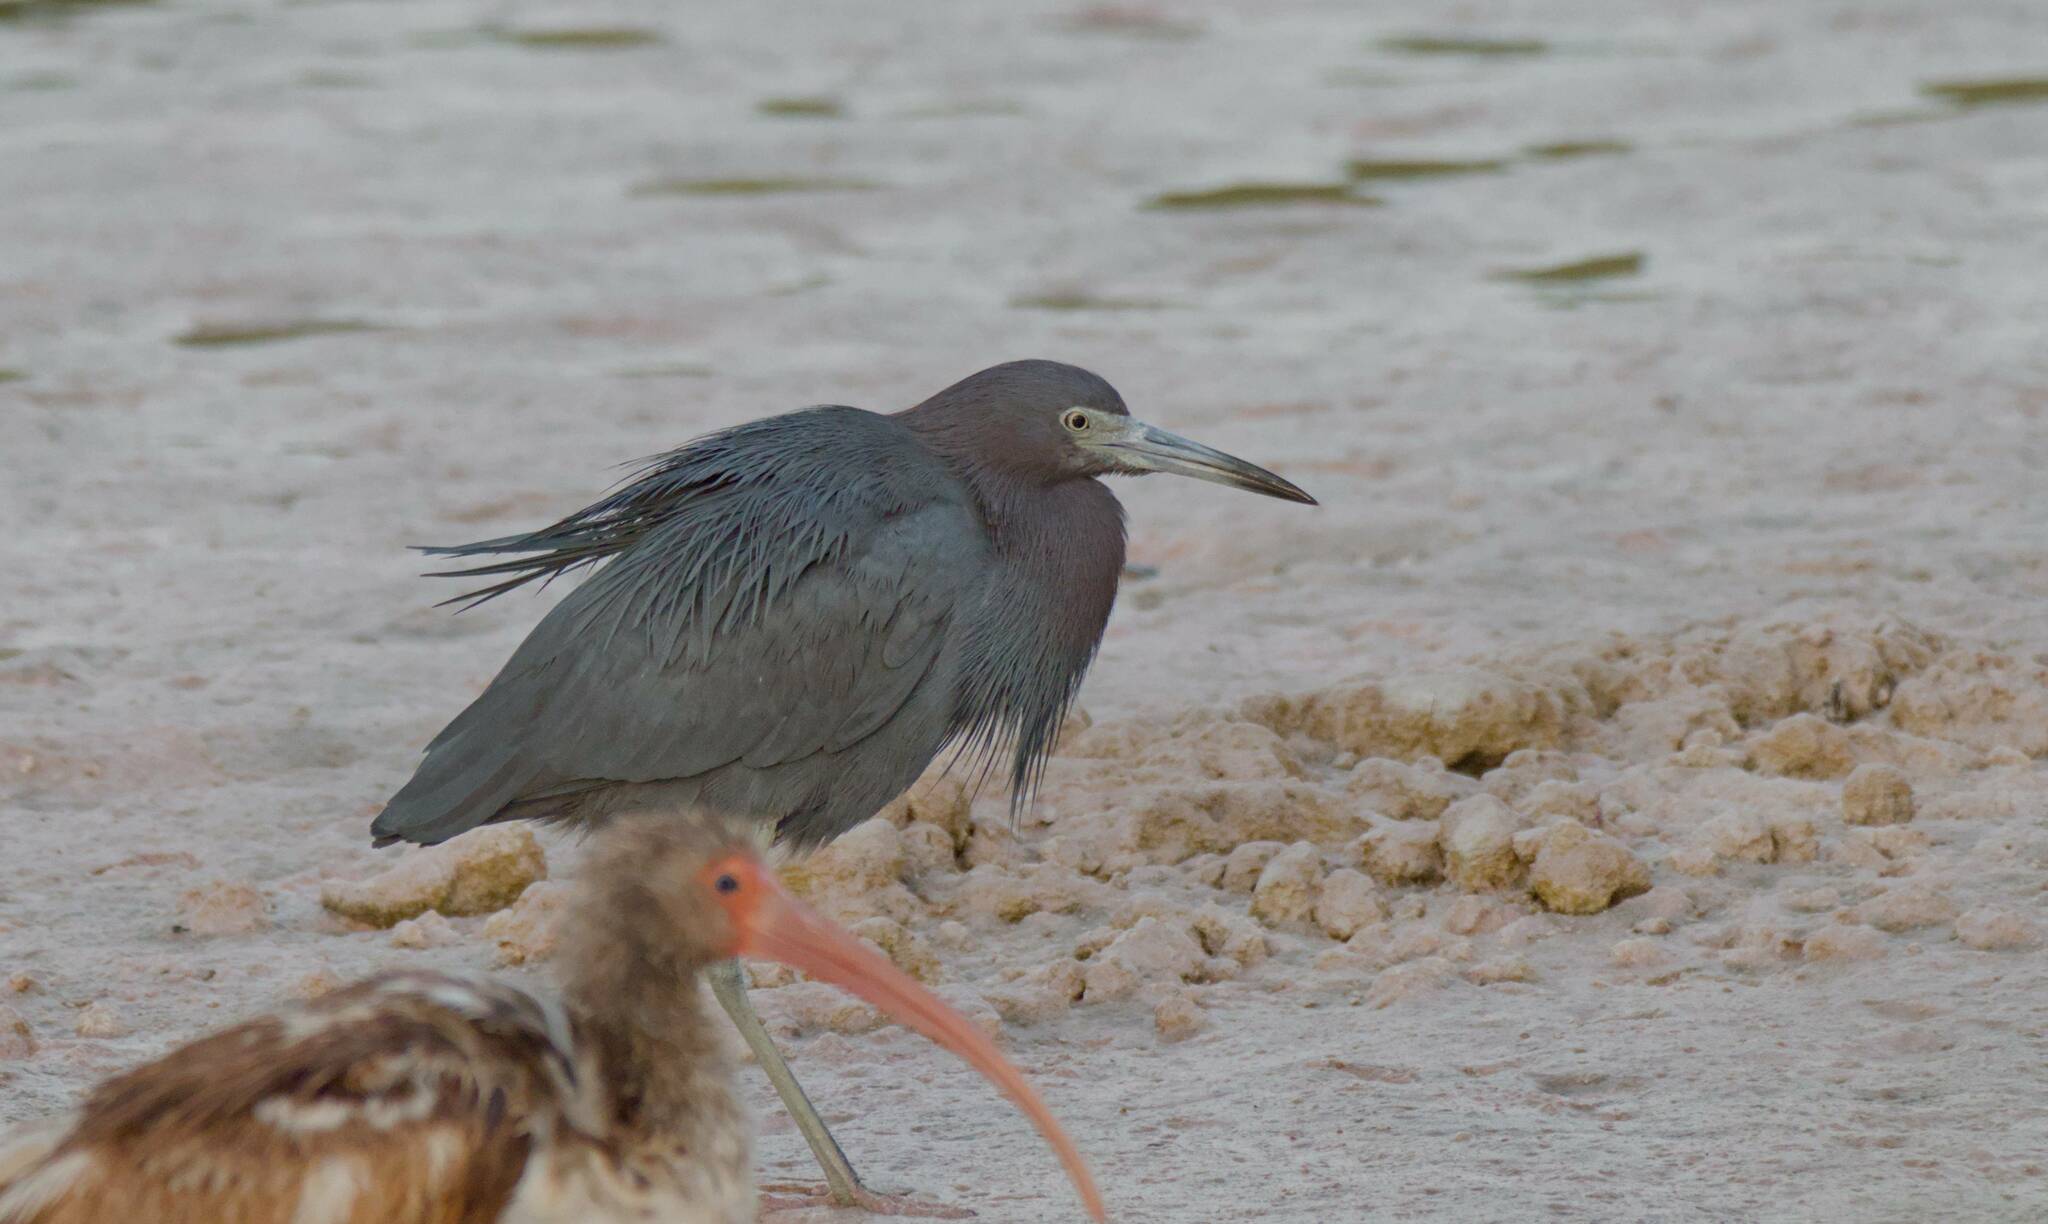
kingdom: Animalia
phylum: Chordata
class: Aves
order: Pelecaniformes
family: Ardeidae
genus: Egretta
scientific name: Egretta caerulea
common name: Little blue heron
